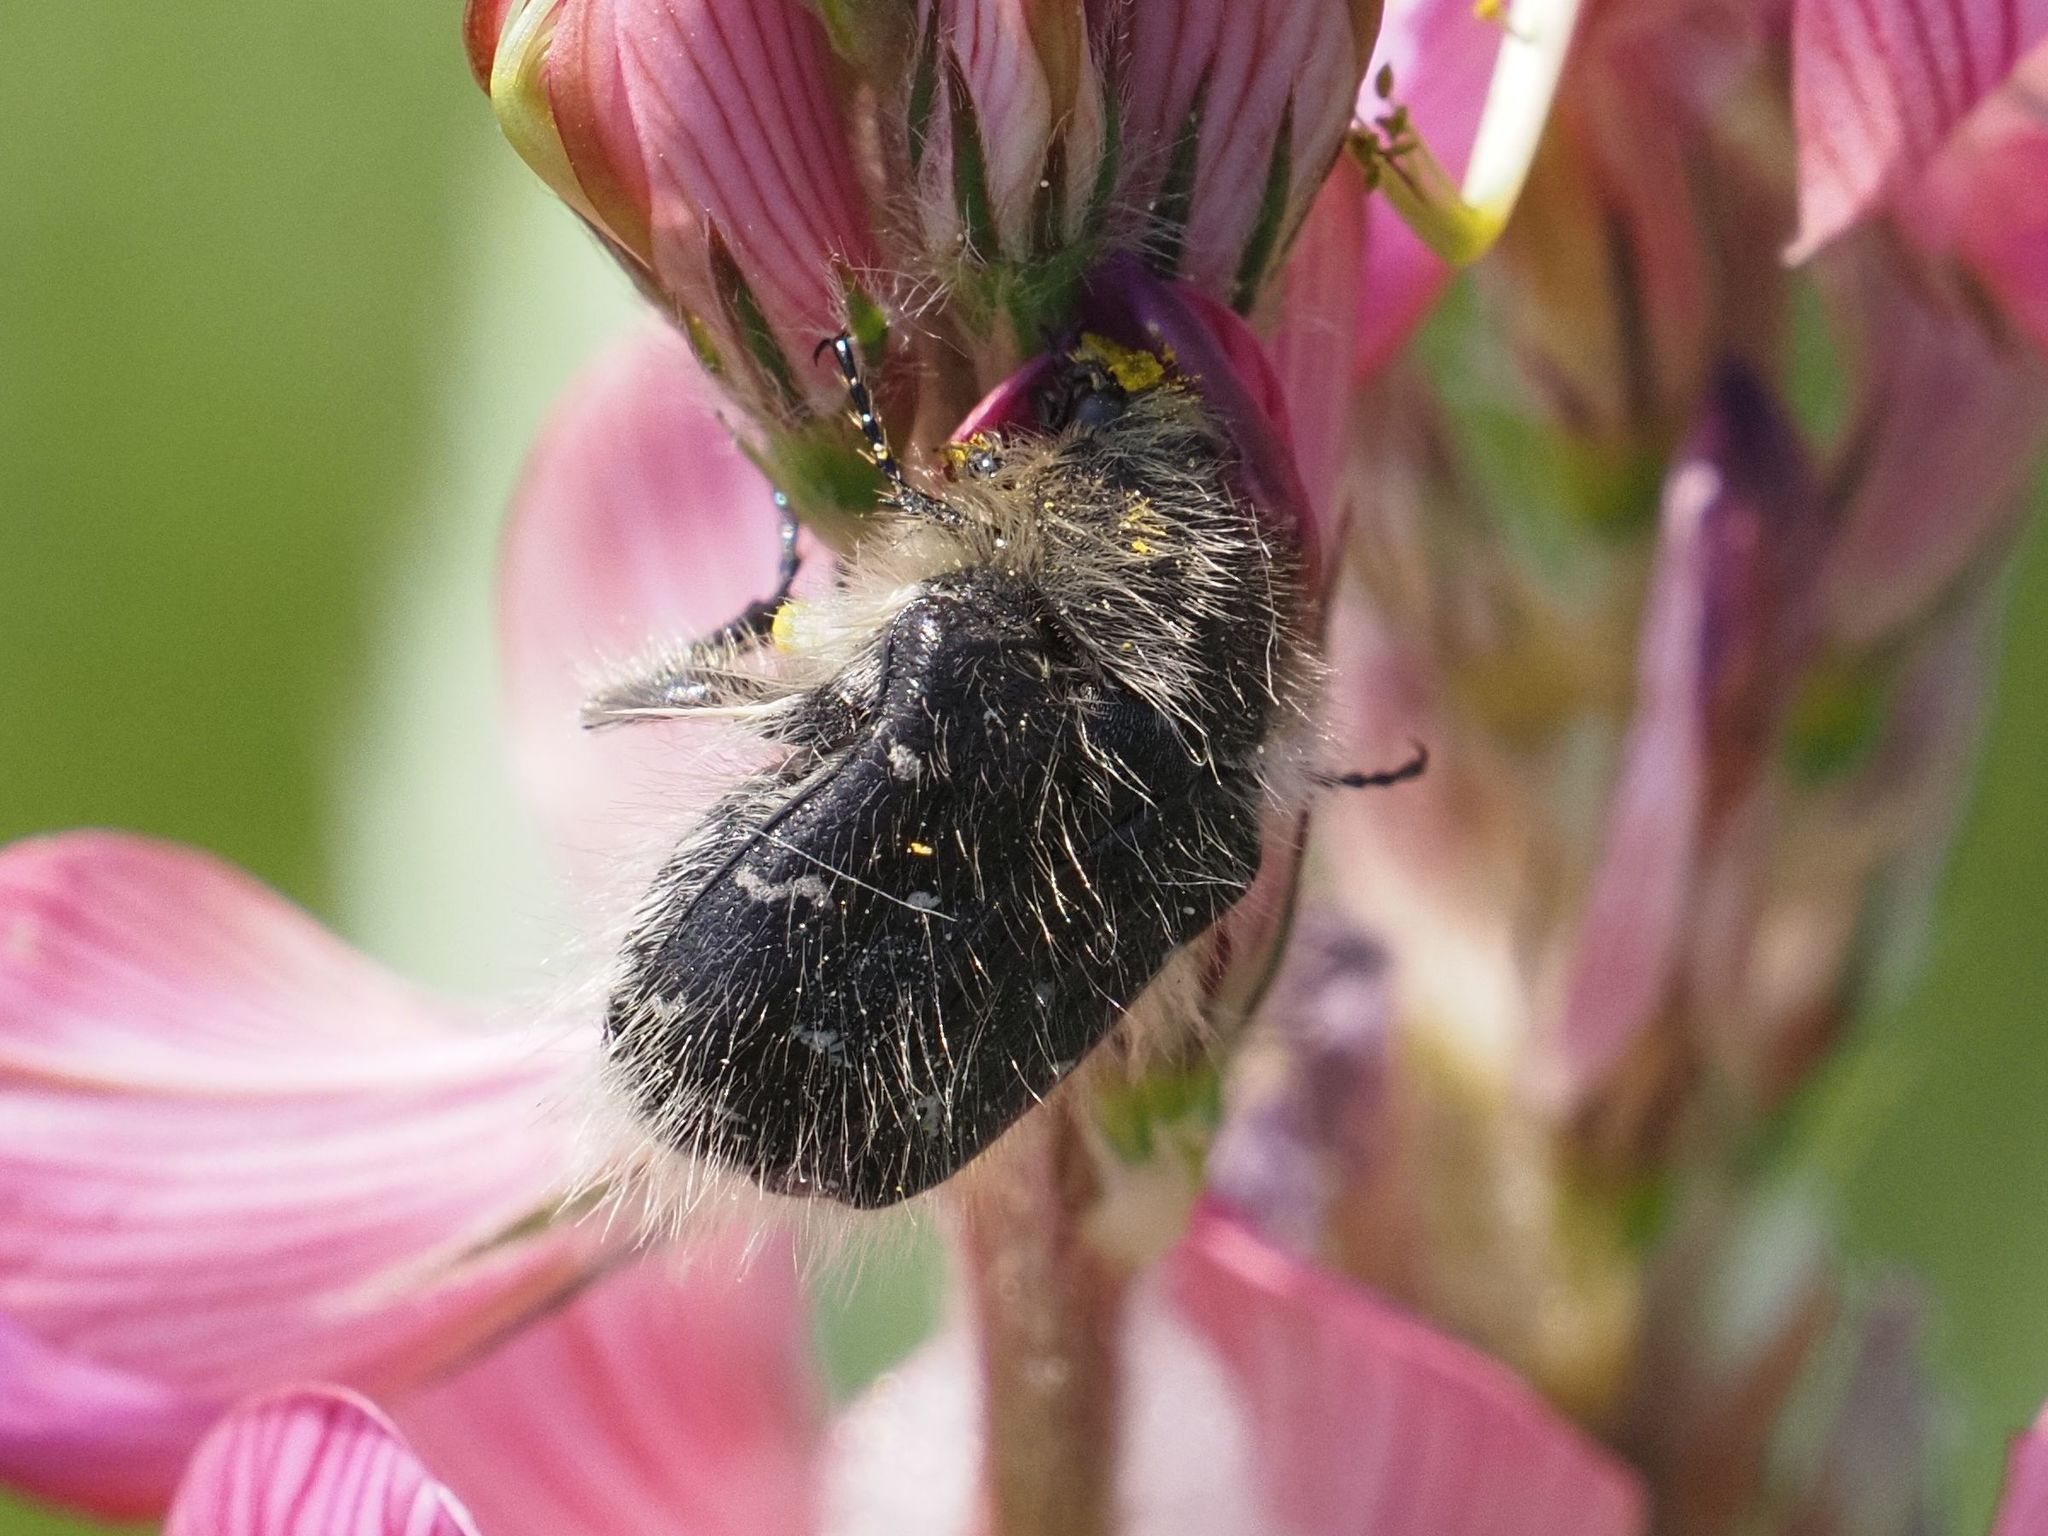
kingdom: Animalia
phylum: Arthropoda
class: Insecta
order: Coleoptera
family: Scarabaeidae
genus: Tropinota
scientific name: Tropinota hirta
